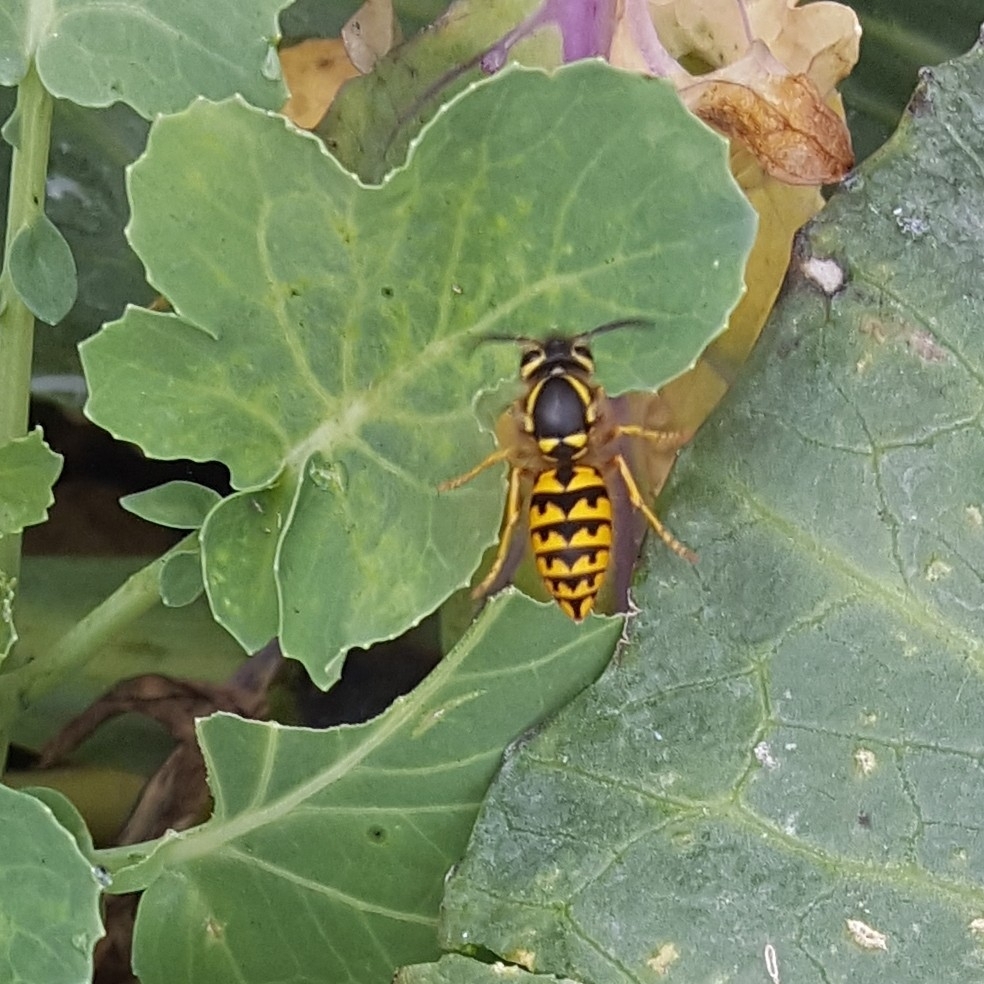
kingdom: Animalia
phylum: Arthropoda
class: Insecta
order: Hymenoptera
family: Vespidae
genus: Vespula
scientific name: Vespula pensylvanica
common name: Western yellowjacket
